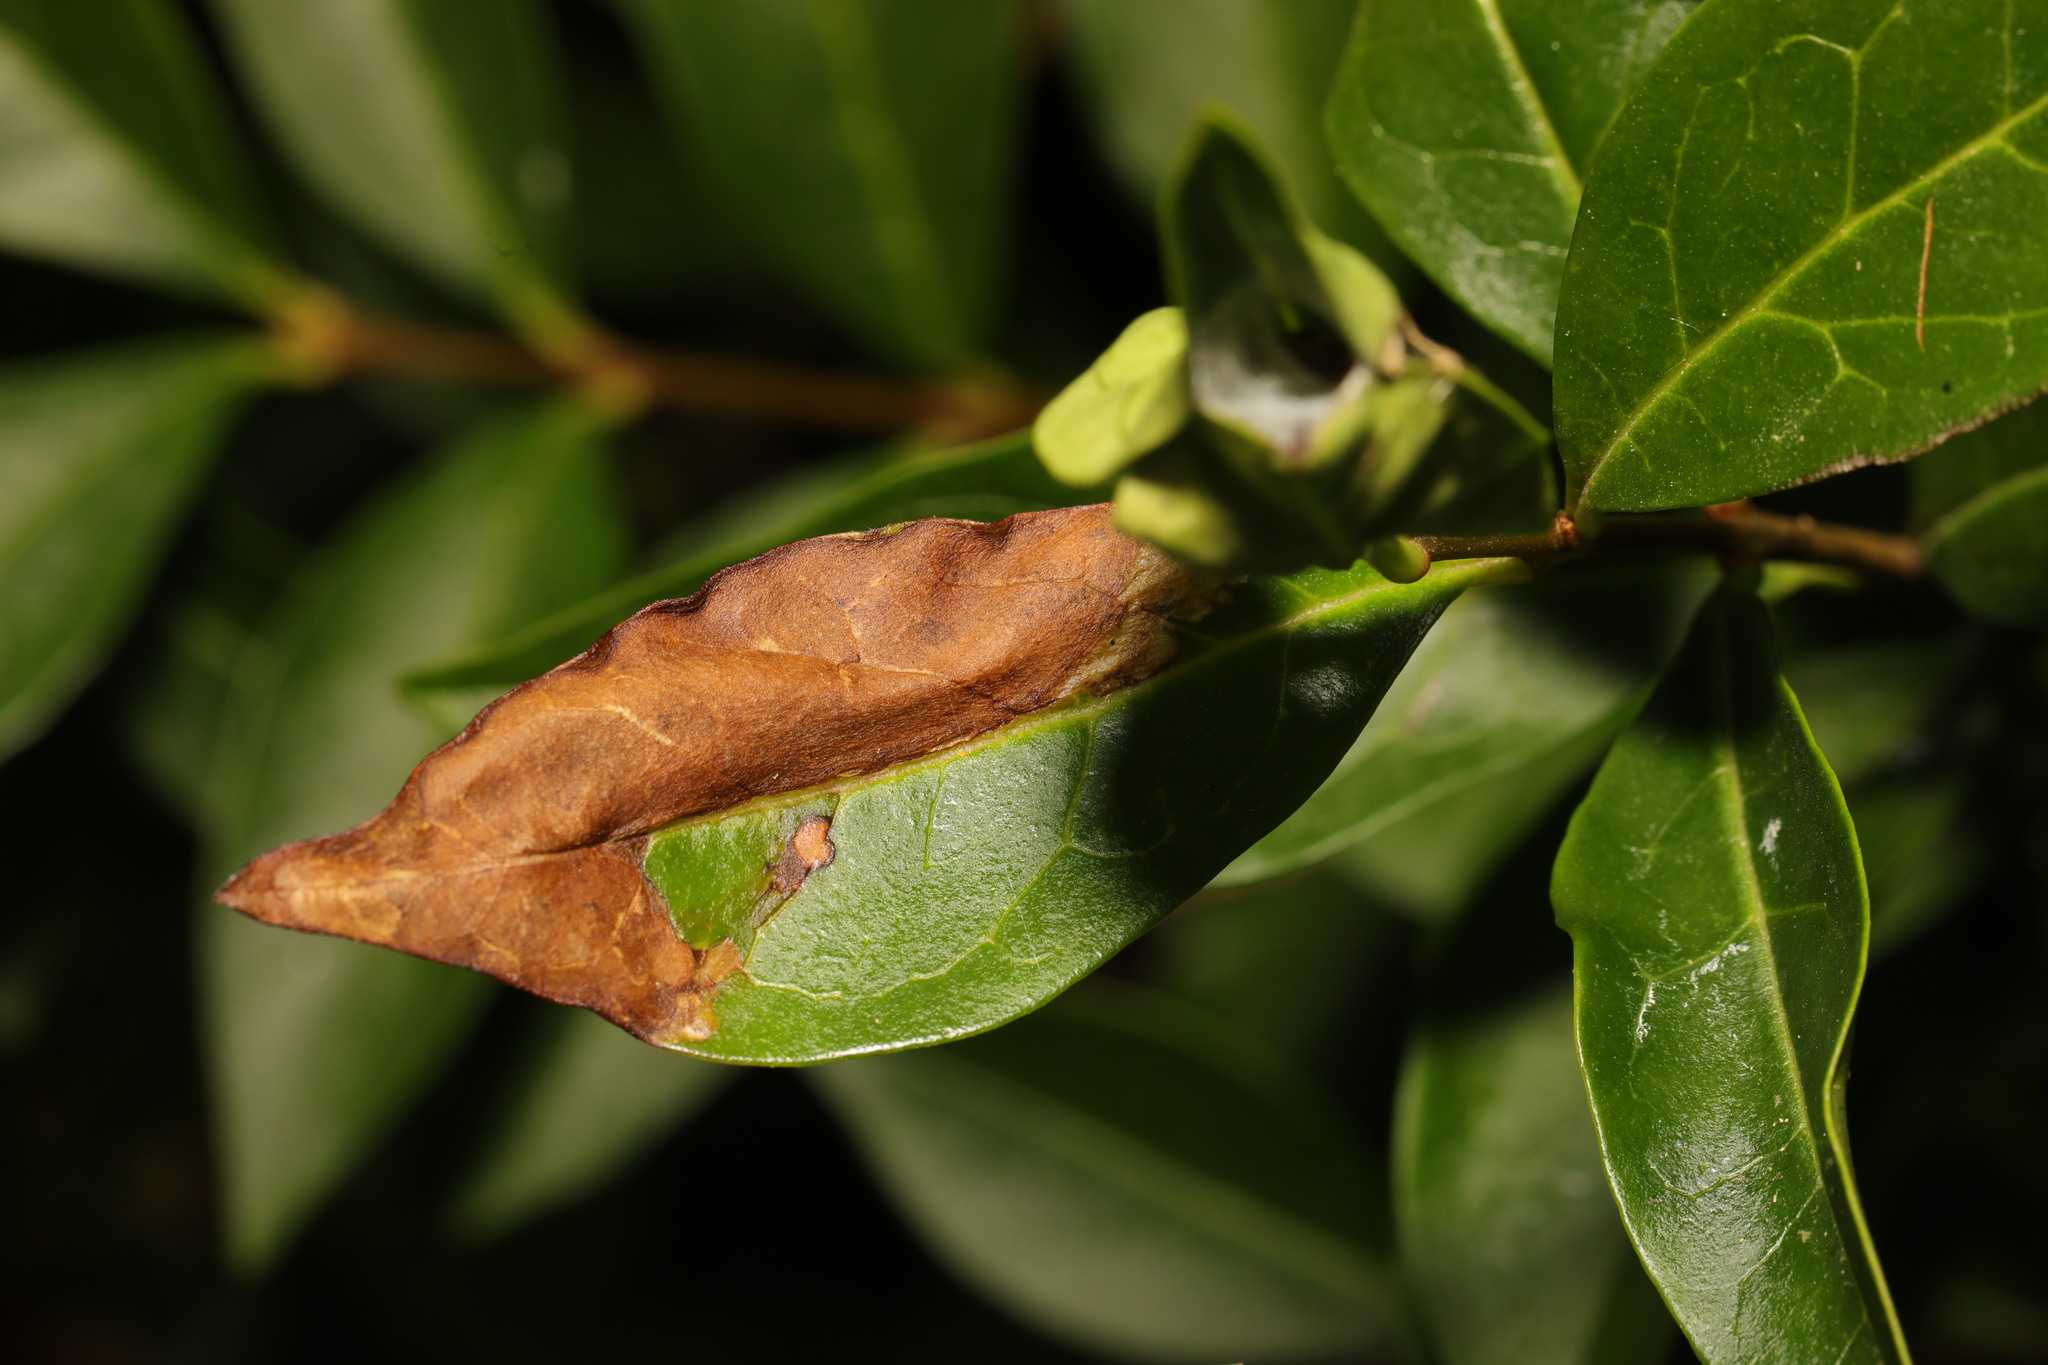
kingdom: Animalia
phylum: Arthropoda
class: Insecta
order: Lepidoptera
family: Gracillariidae
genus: Gracillaria
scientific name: Gracillaria syringella
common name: Common slender
